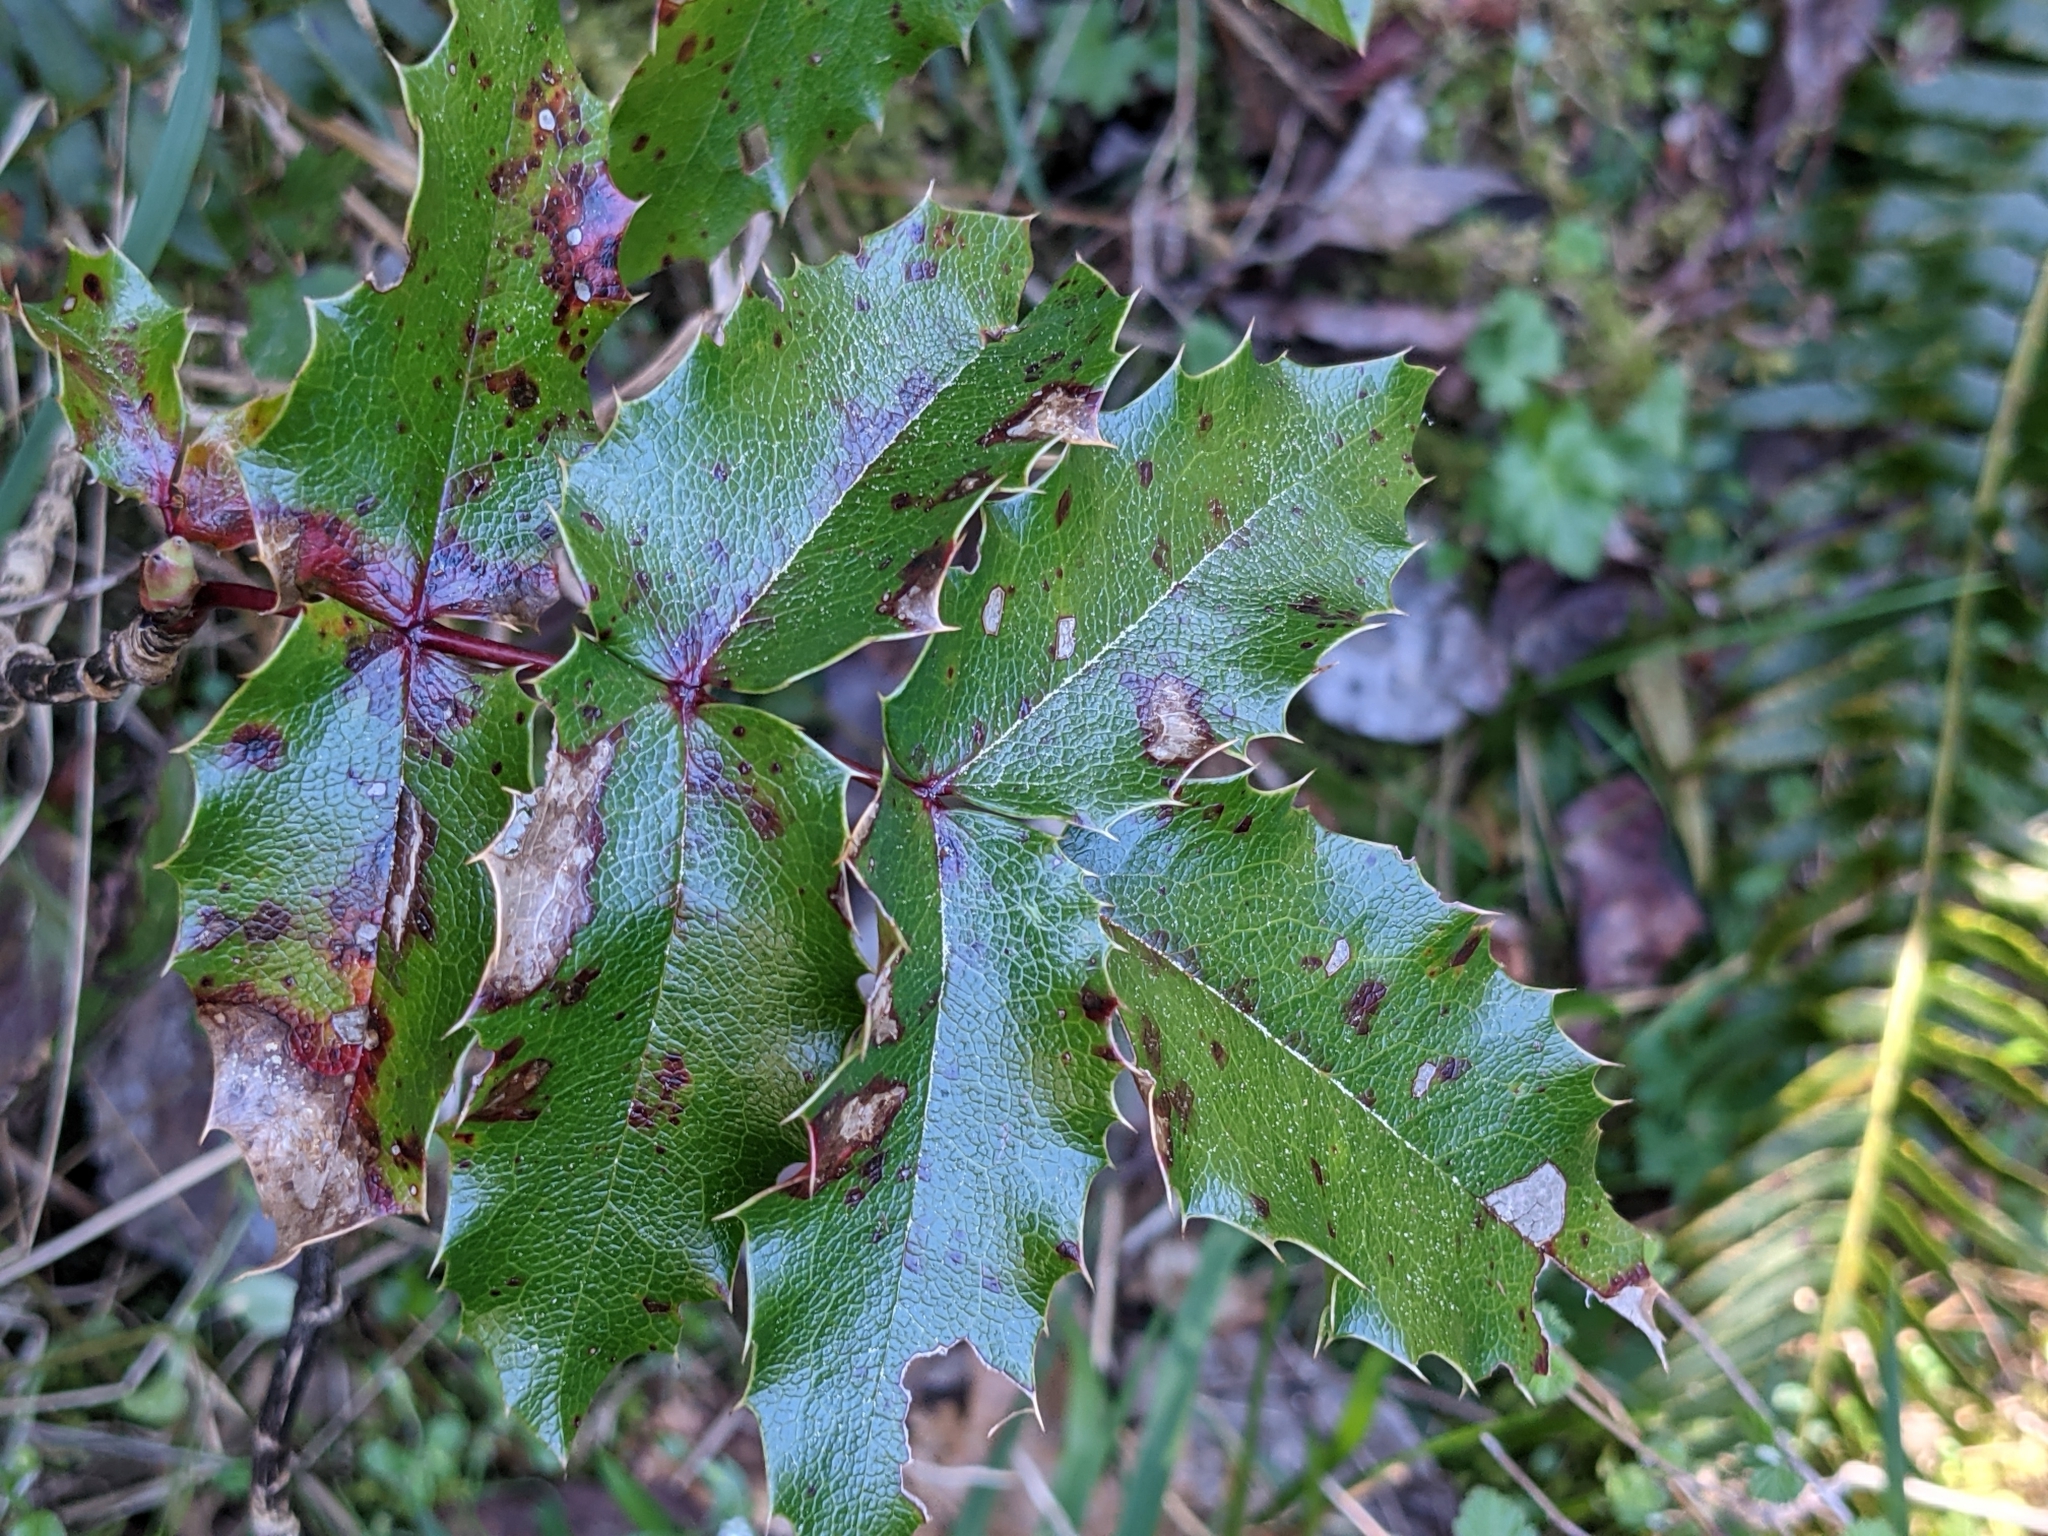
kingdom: Plantae
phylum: Tracheophyta
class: Magnoliopsida
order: Ranunculales
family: Berberidaceae
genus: Mahonia
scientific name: Mahonia aquifolium
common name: Oregon-grape
